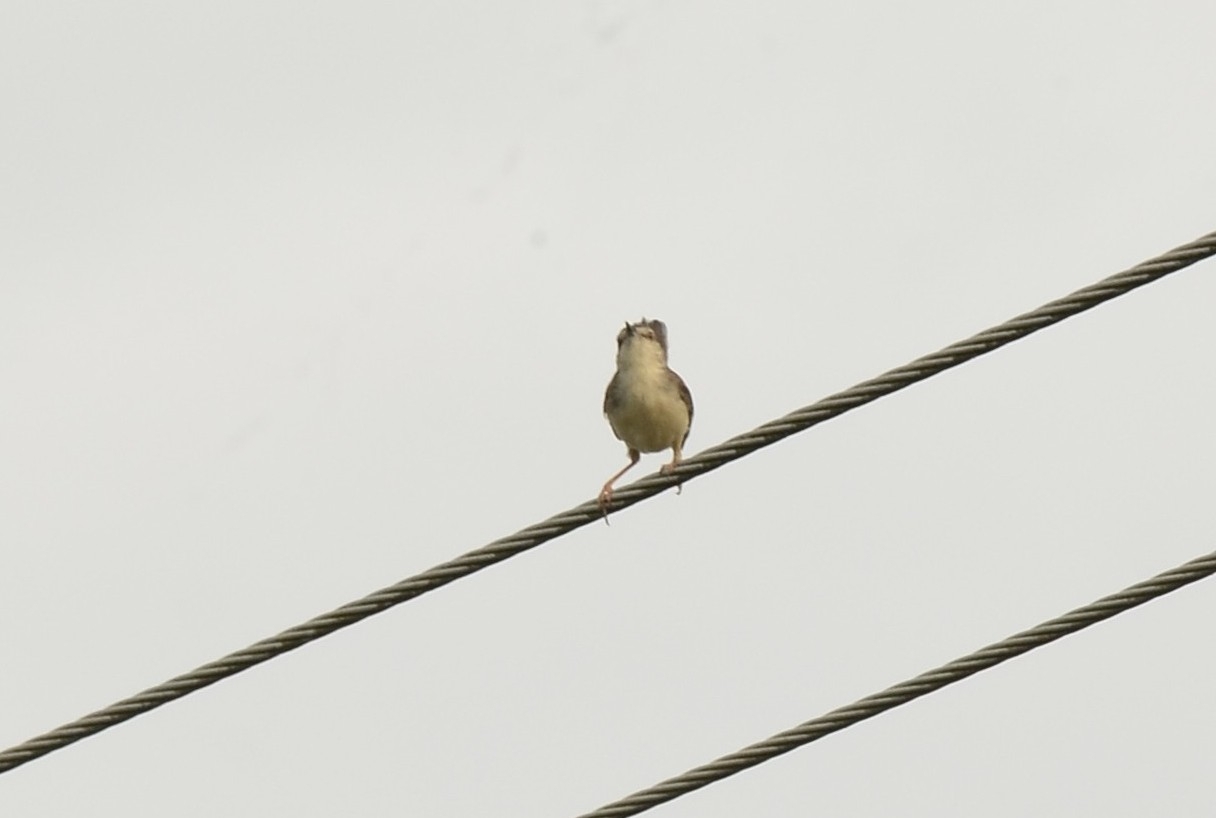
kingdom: Animalia
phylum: Chordata
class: Aves
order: Passeriformes
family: Cisticolidae
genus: Prinia
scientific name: Prinia inornata
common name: Plain prinia
